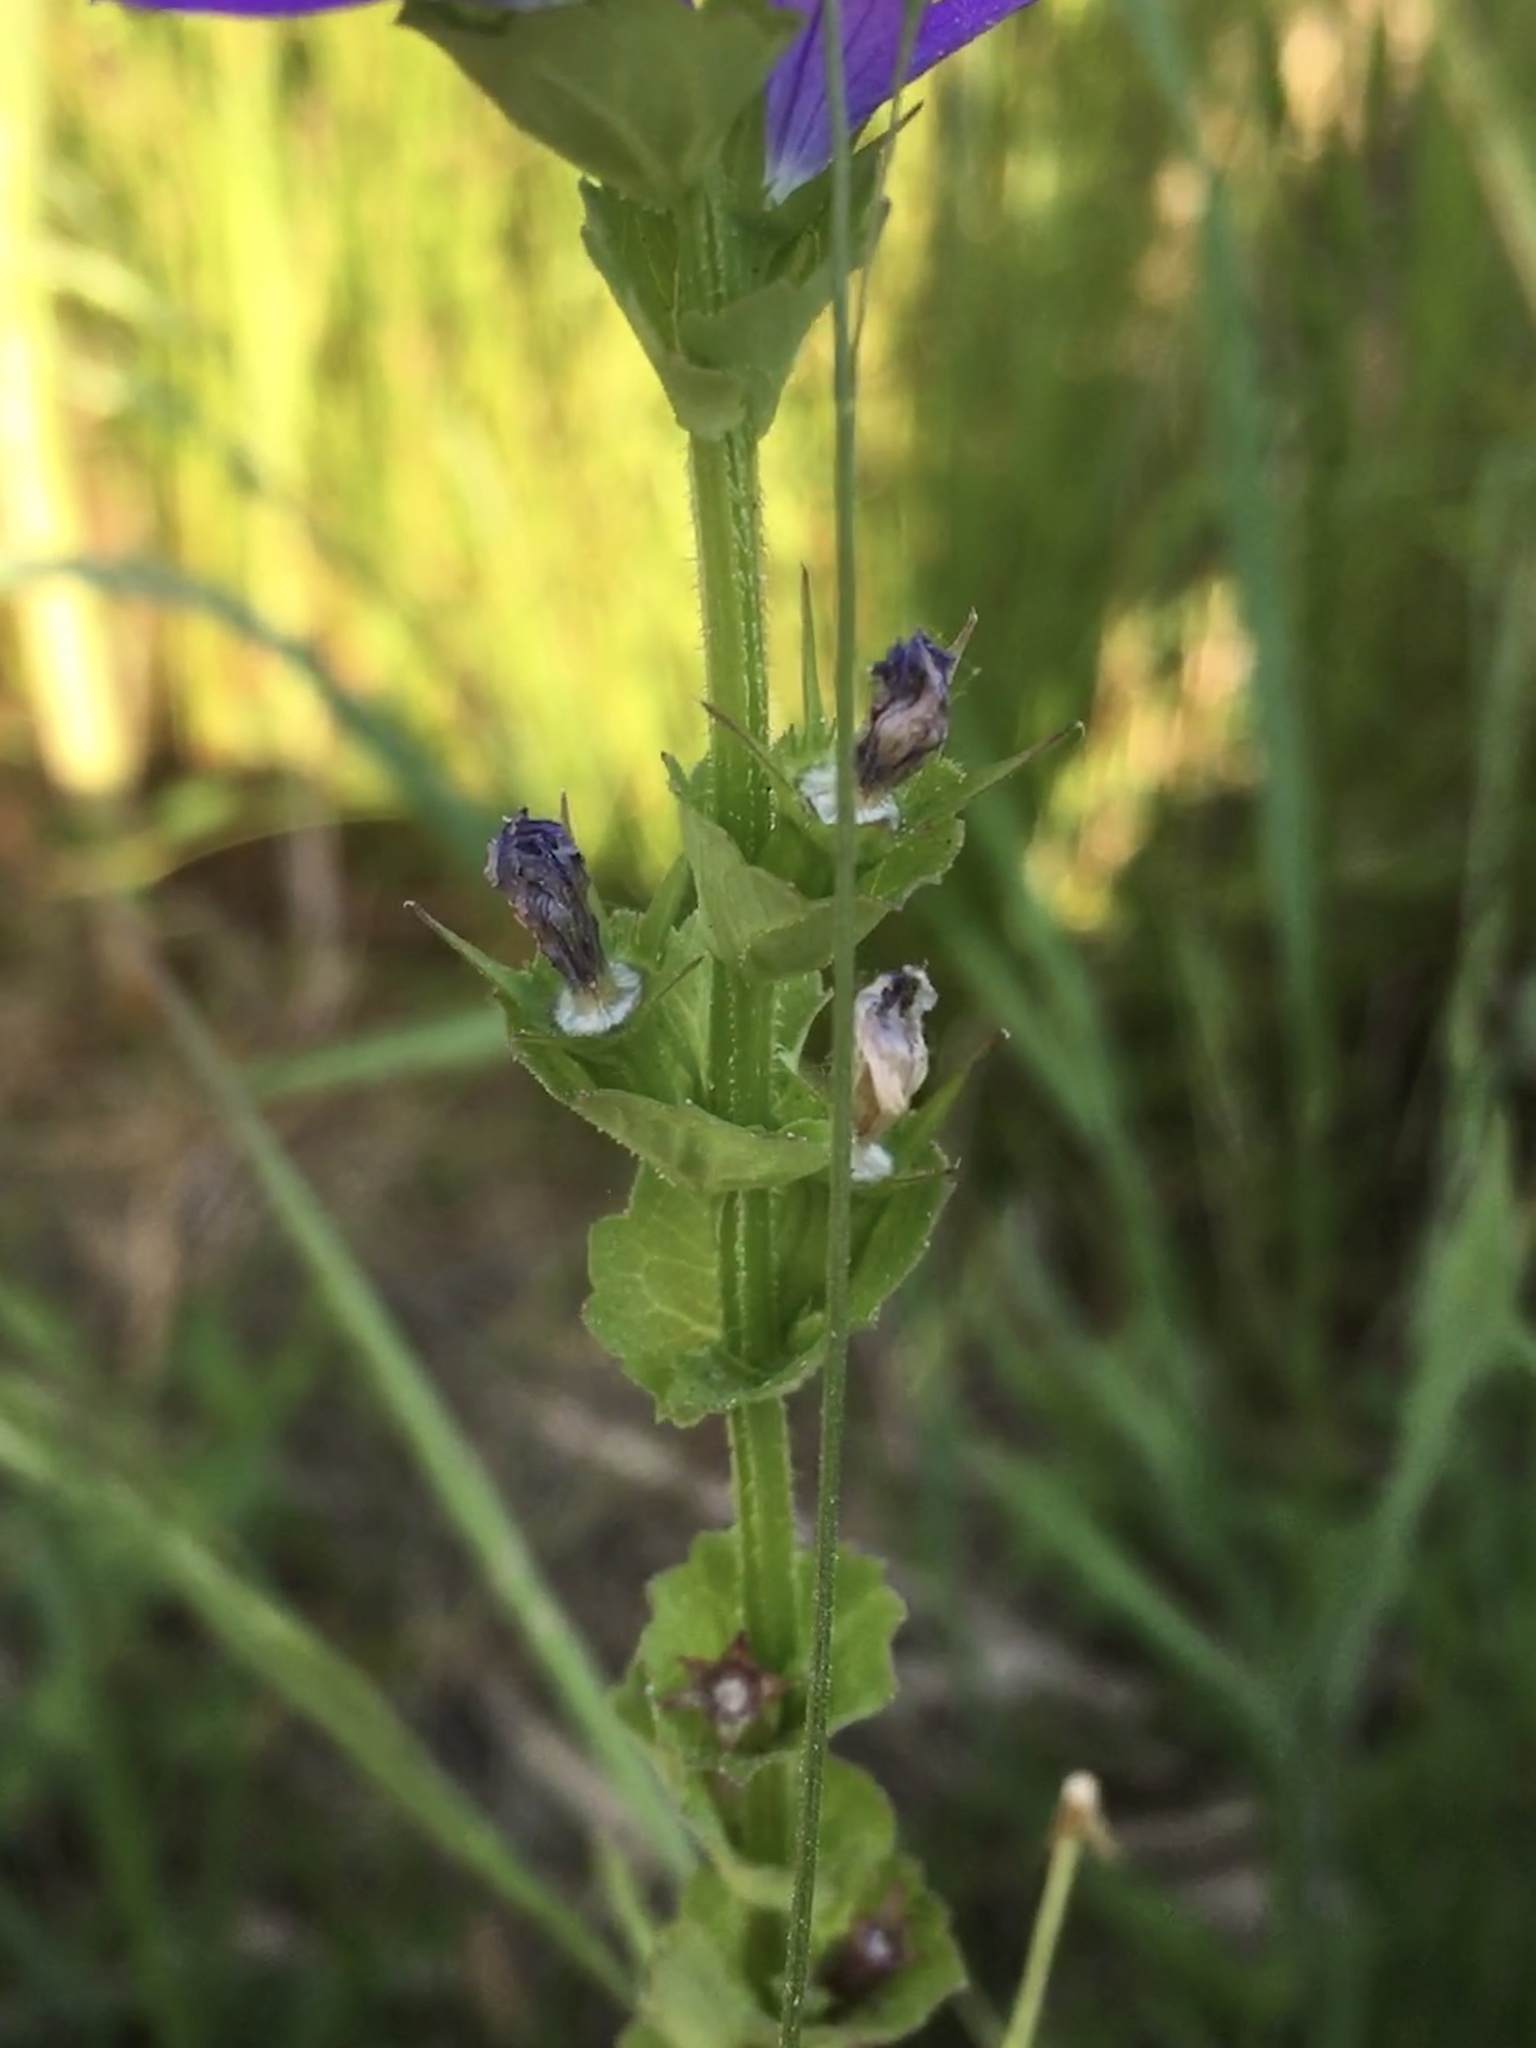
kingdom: Plantae
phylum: Tracheophyta
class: Magnoliopsida
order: Asterales
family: Campanulaceae
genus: Triodanis
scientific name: Triodanis perfoliata
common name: Clasping venus' looking-glass
